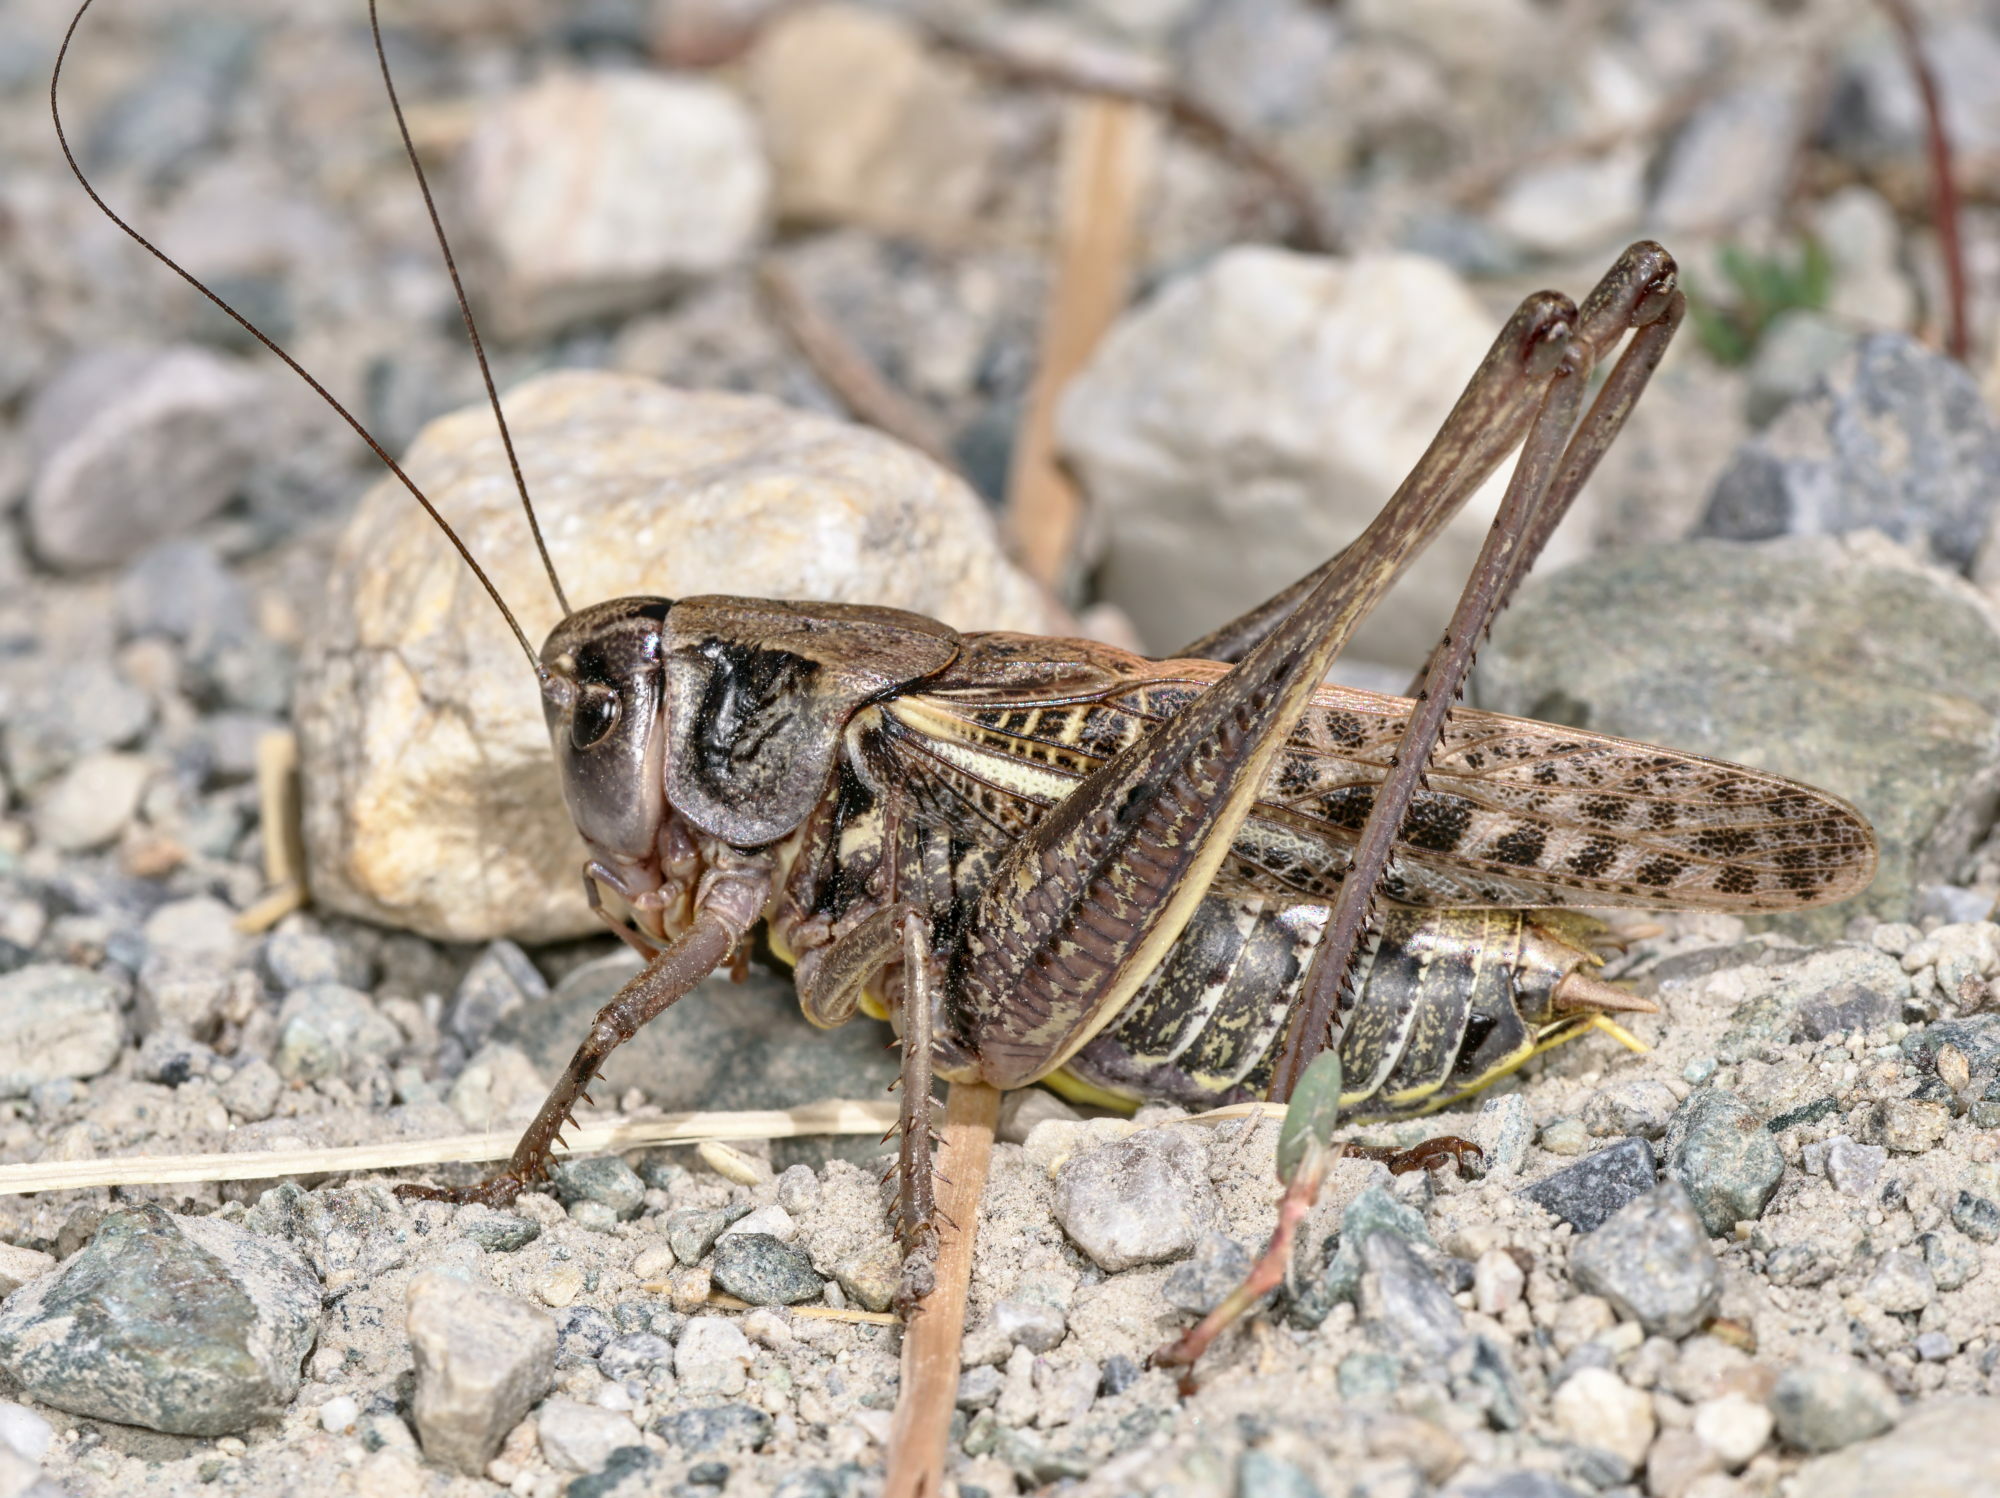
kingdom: Animalia
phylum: Arthropoda
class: Insecta
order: Orthoptera
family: Tettigoniidae
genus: Decticus
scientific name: Decticus verrucivorus
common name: Wart-biter
